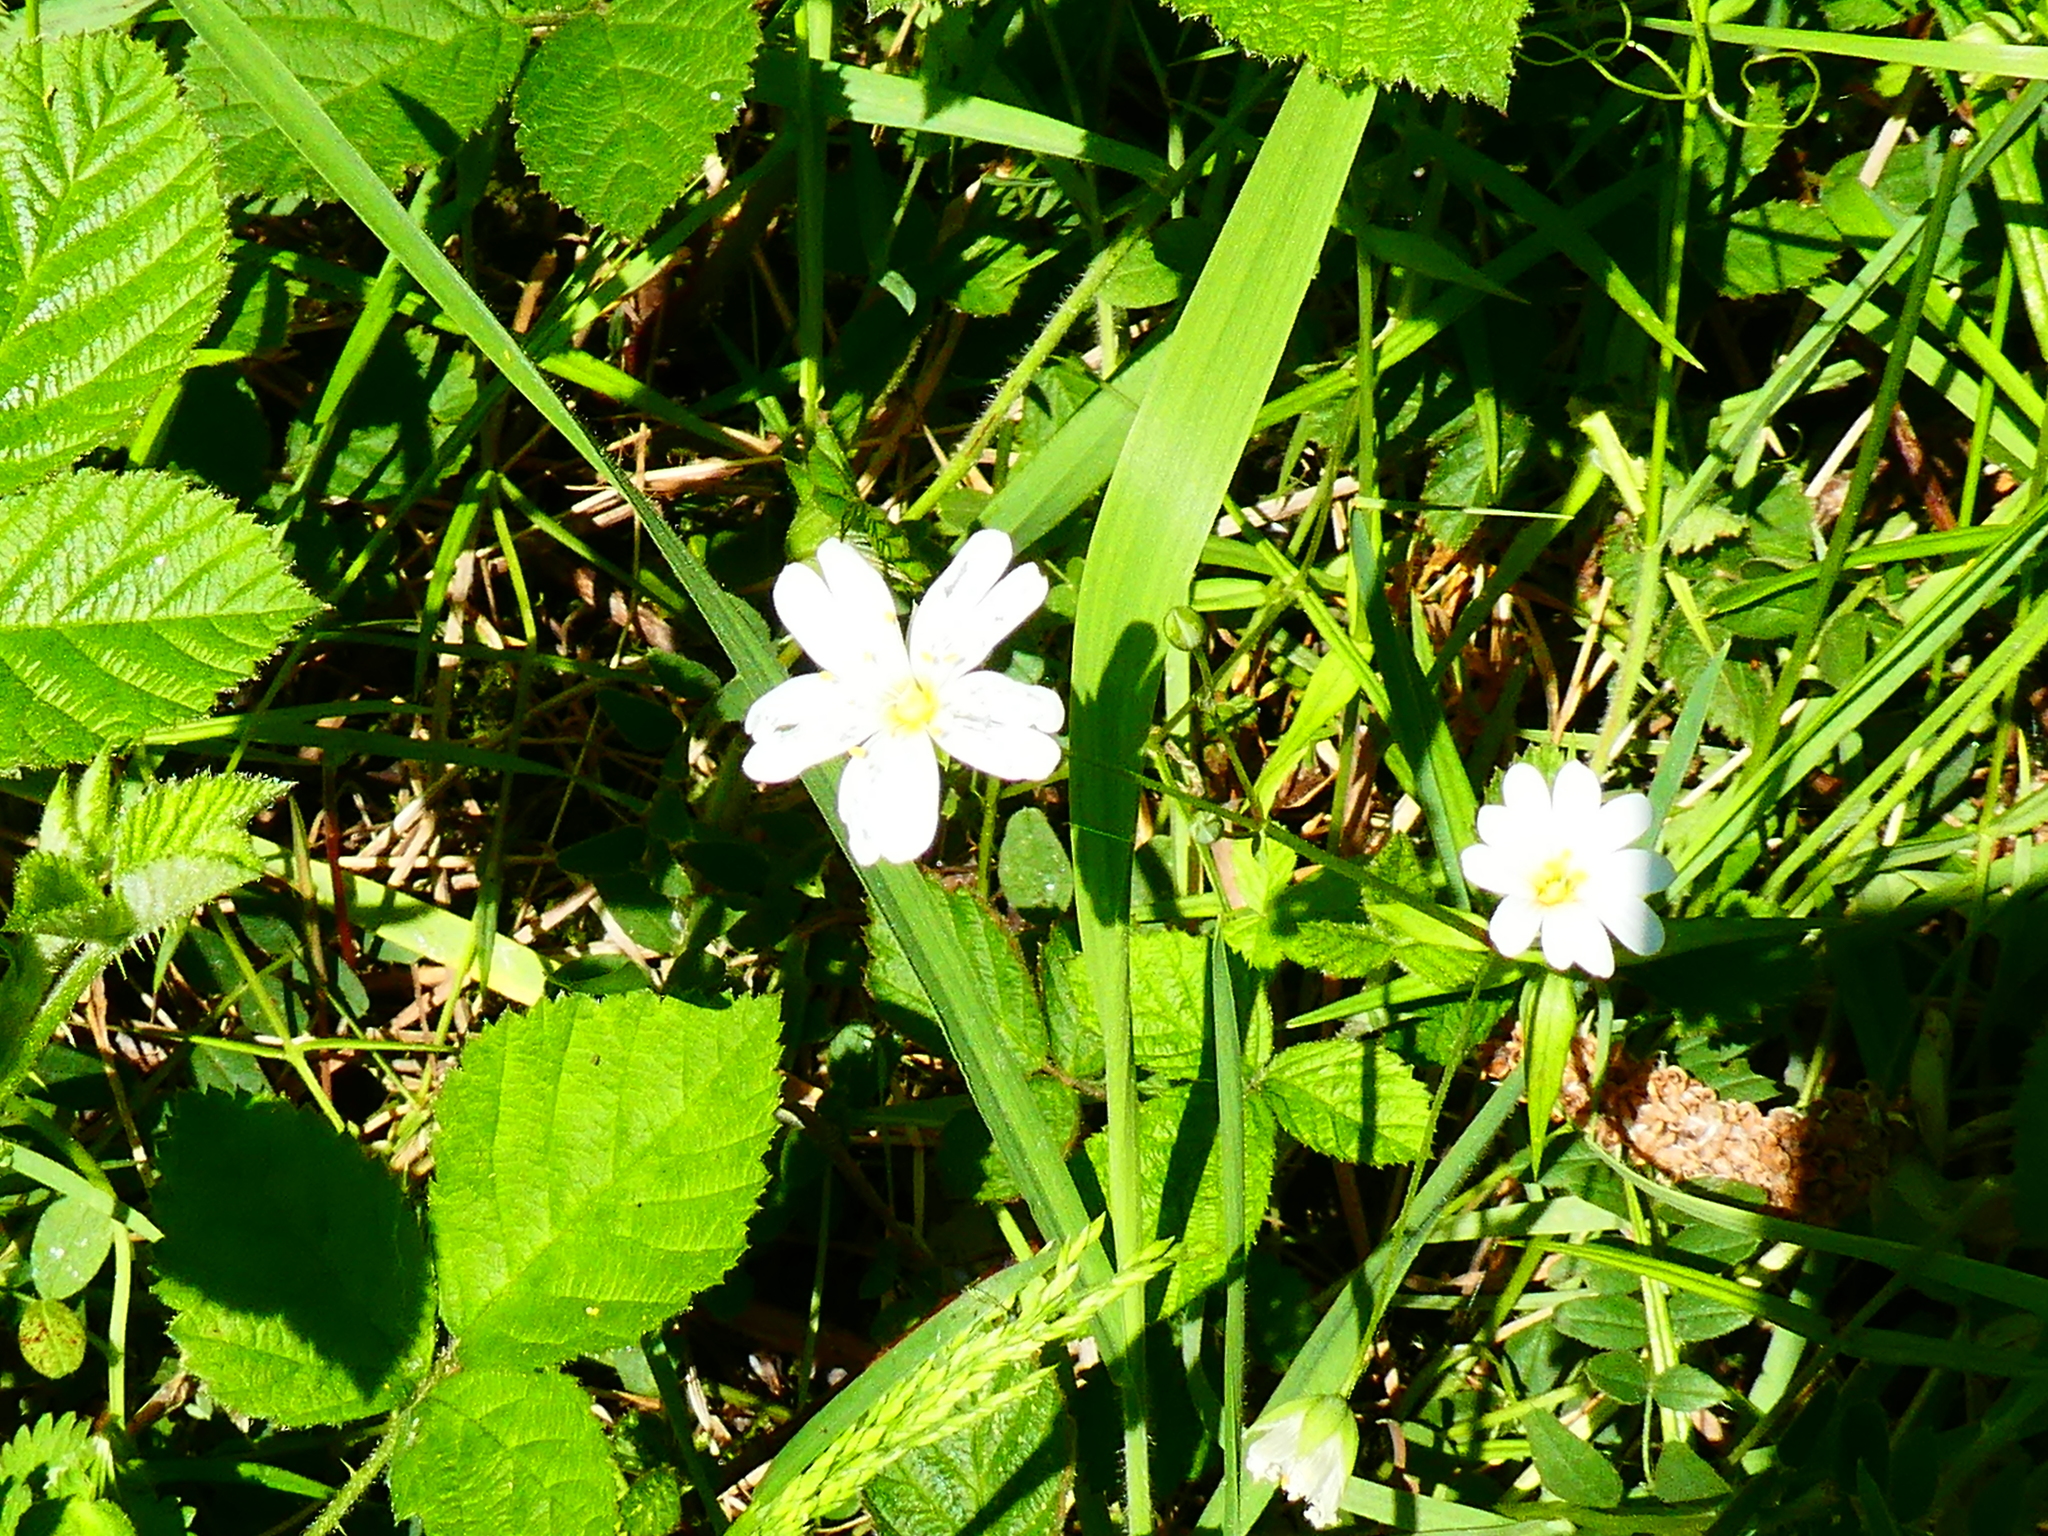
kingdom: Plantae
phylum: Tracheophyta
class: Magnoliopsida
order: Caryophyllales
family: Caryophyllaceae
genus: Rabelera
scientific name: Rabelera holostea
